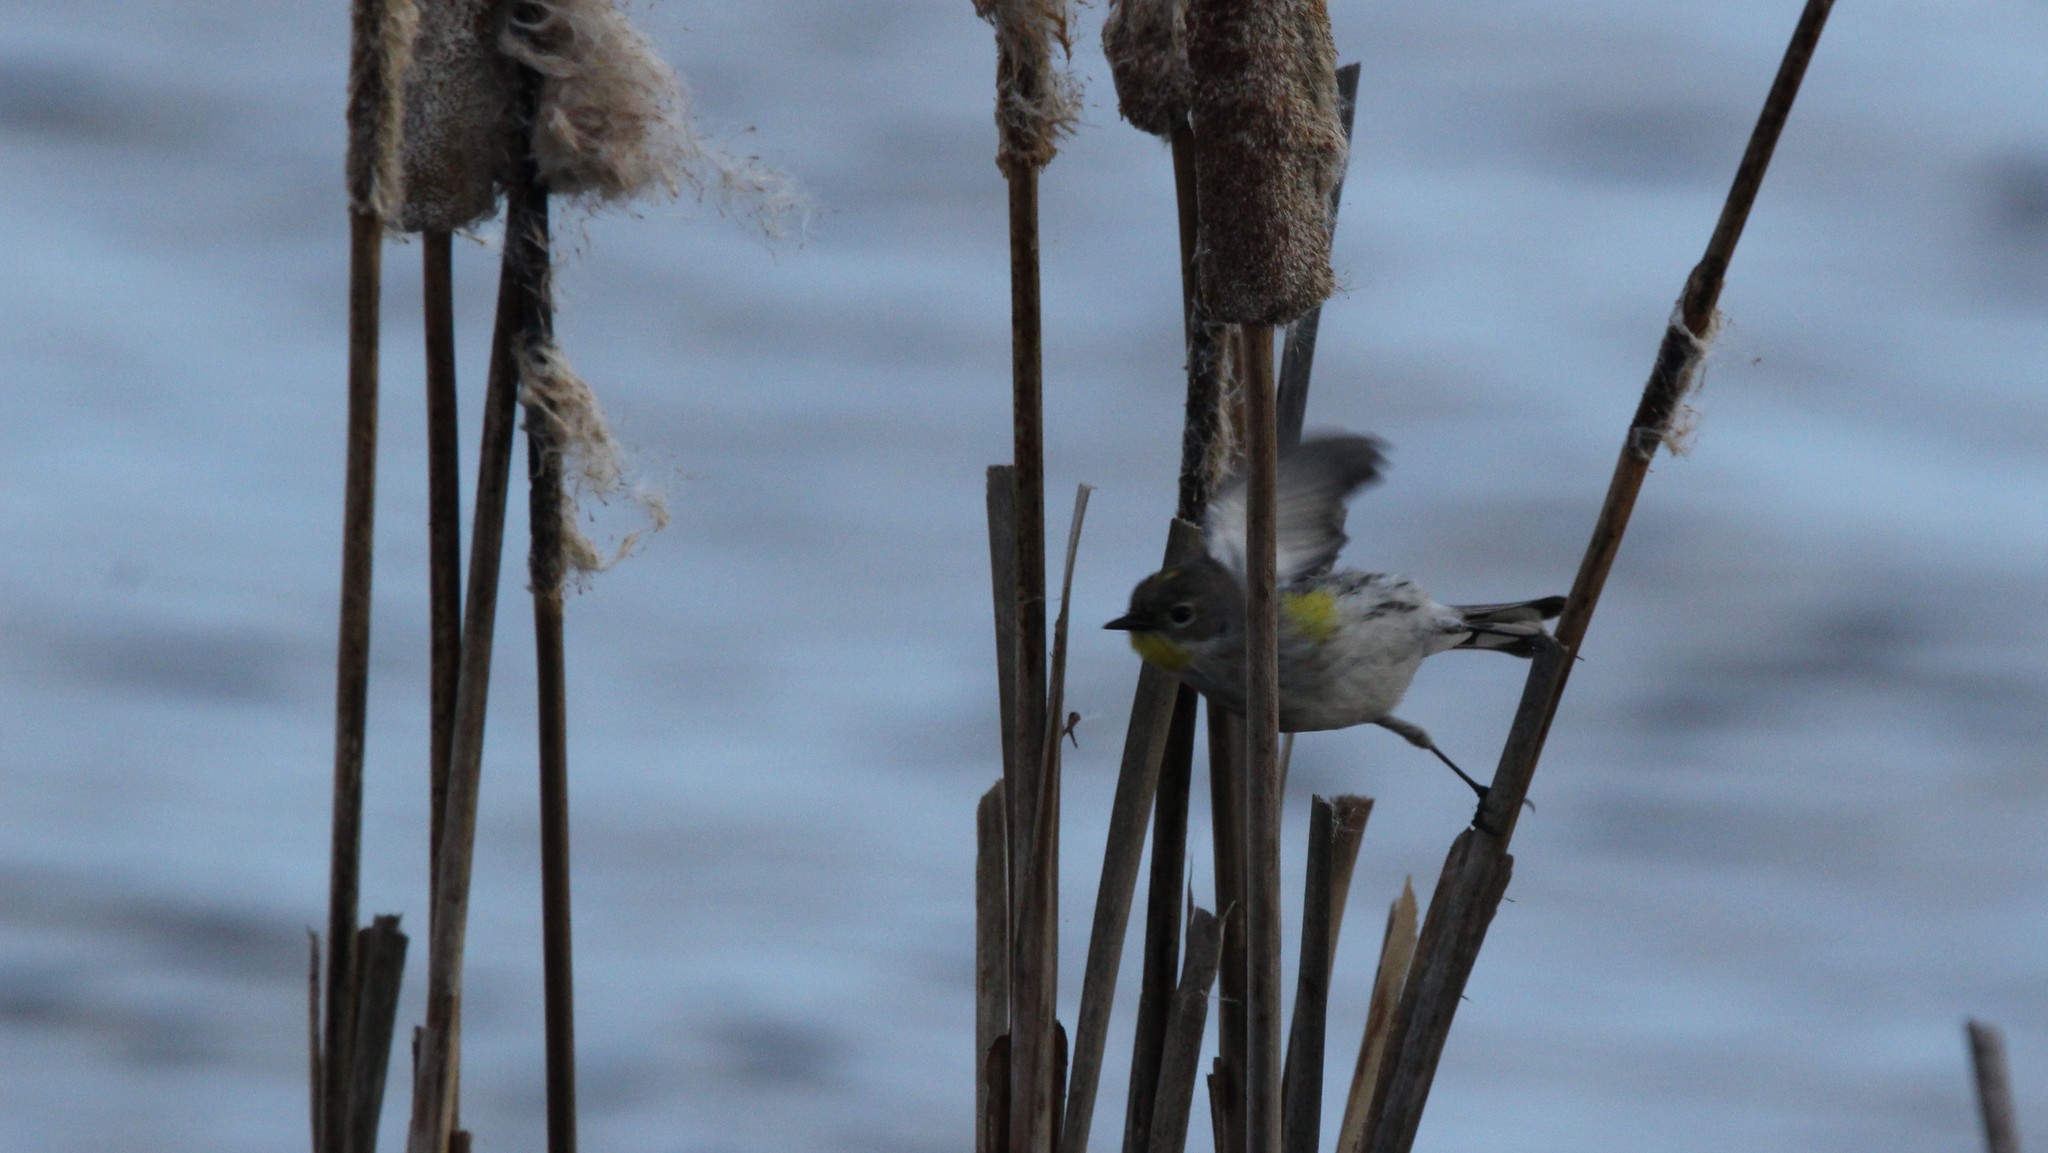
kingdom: Animalia
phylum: Chordata
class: Aves
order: Passeriformes
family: Parulidae
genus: Setophaga
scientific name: Setophaga coronata
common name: Myrtle warbler
